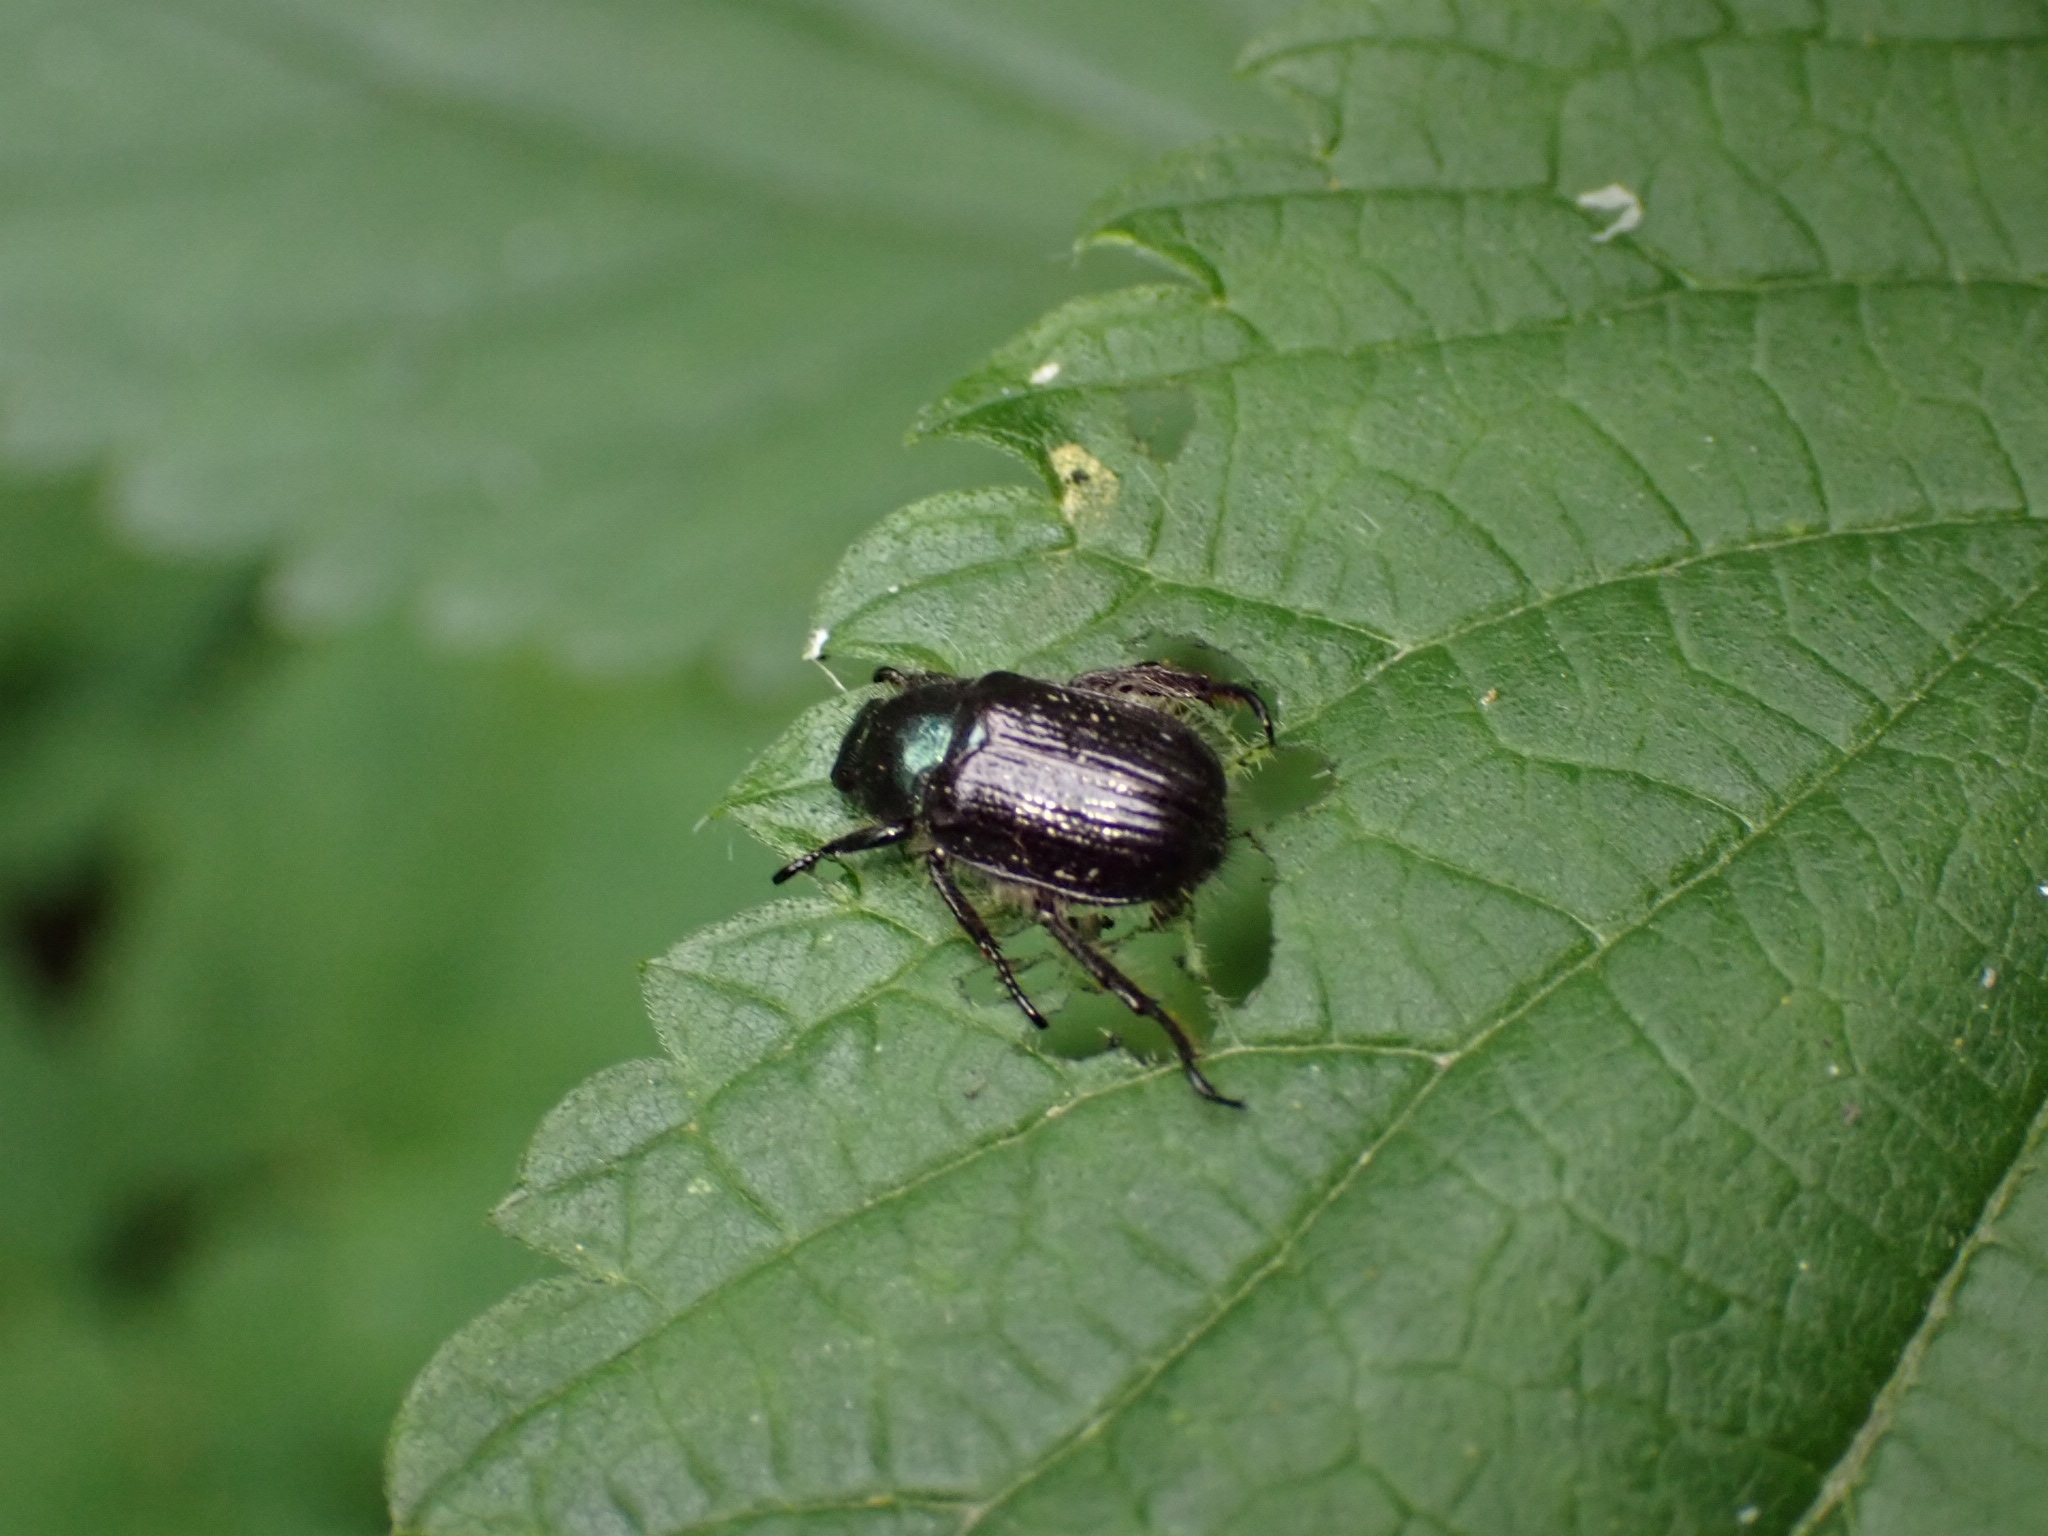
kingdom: Animalia
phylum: Arthropoda
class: Insecta
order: Coleoptera
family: Scarabaeidae
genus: Phyllopertha
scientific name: Phyllopertha horticola
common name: Garden chafer
